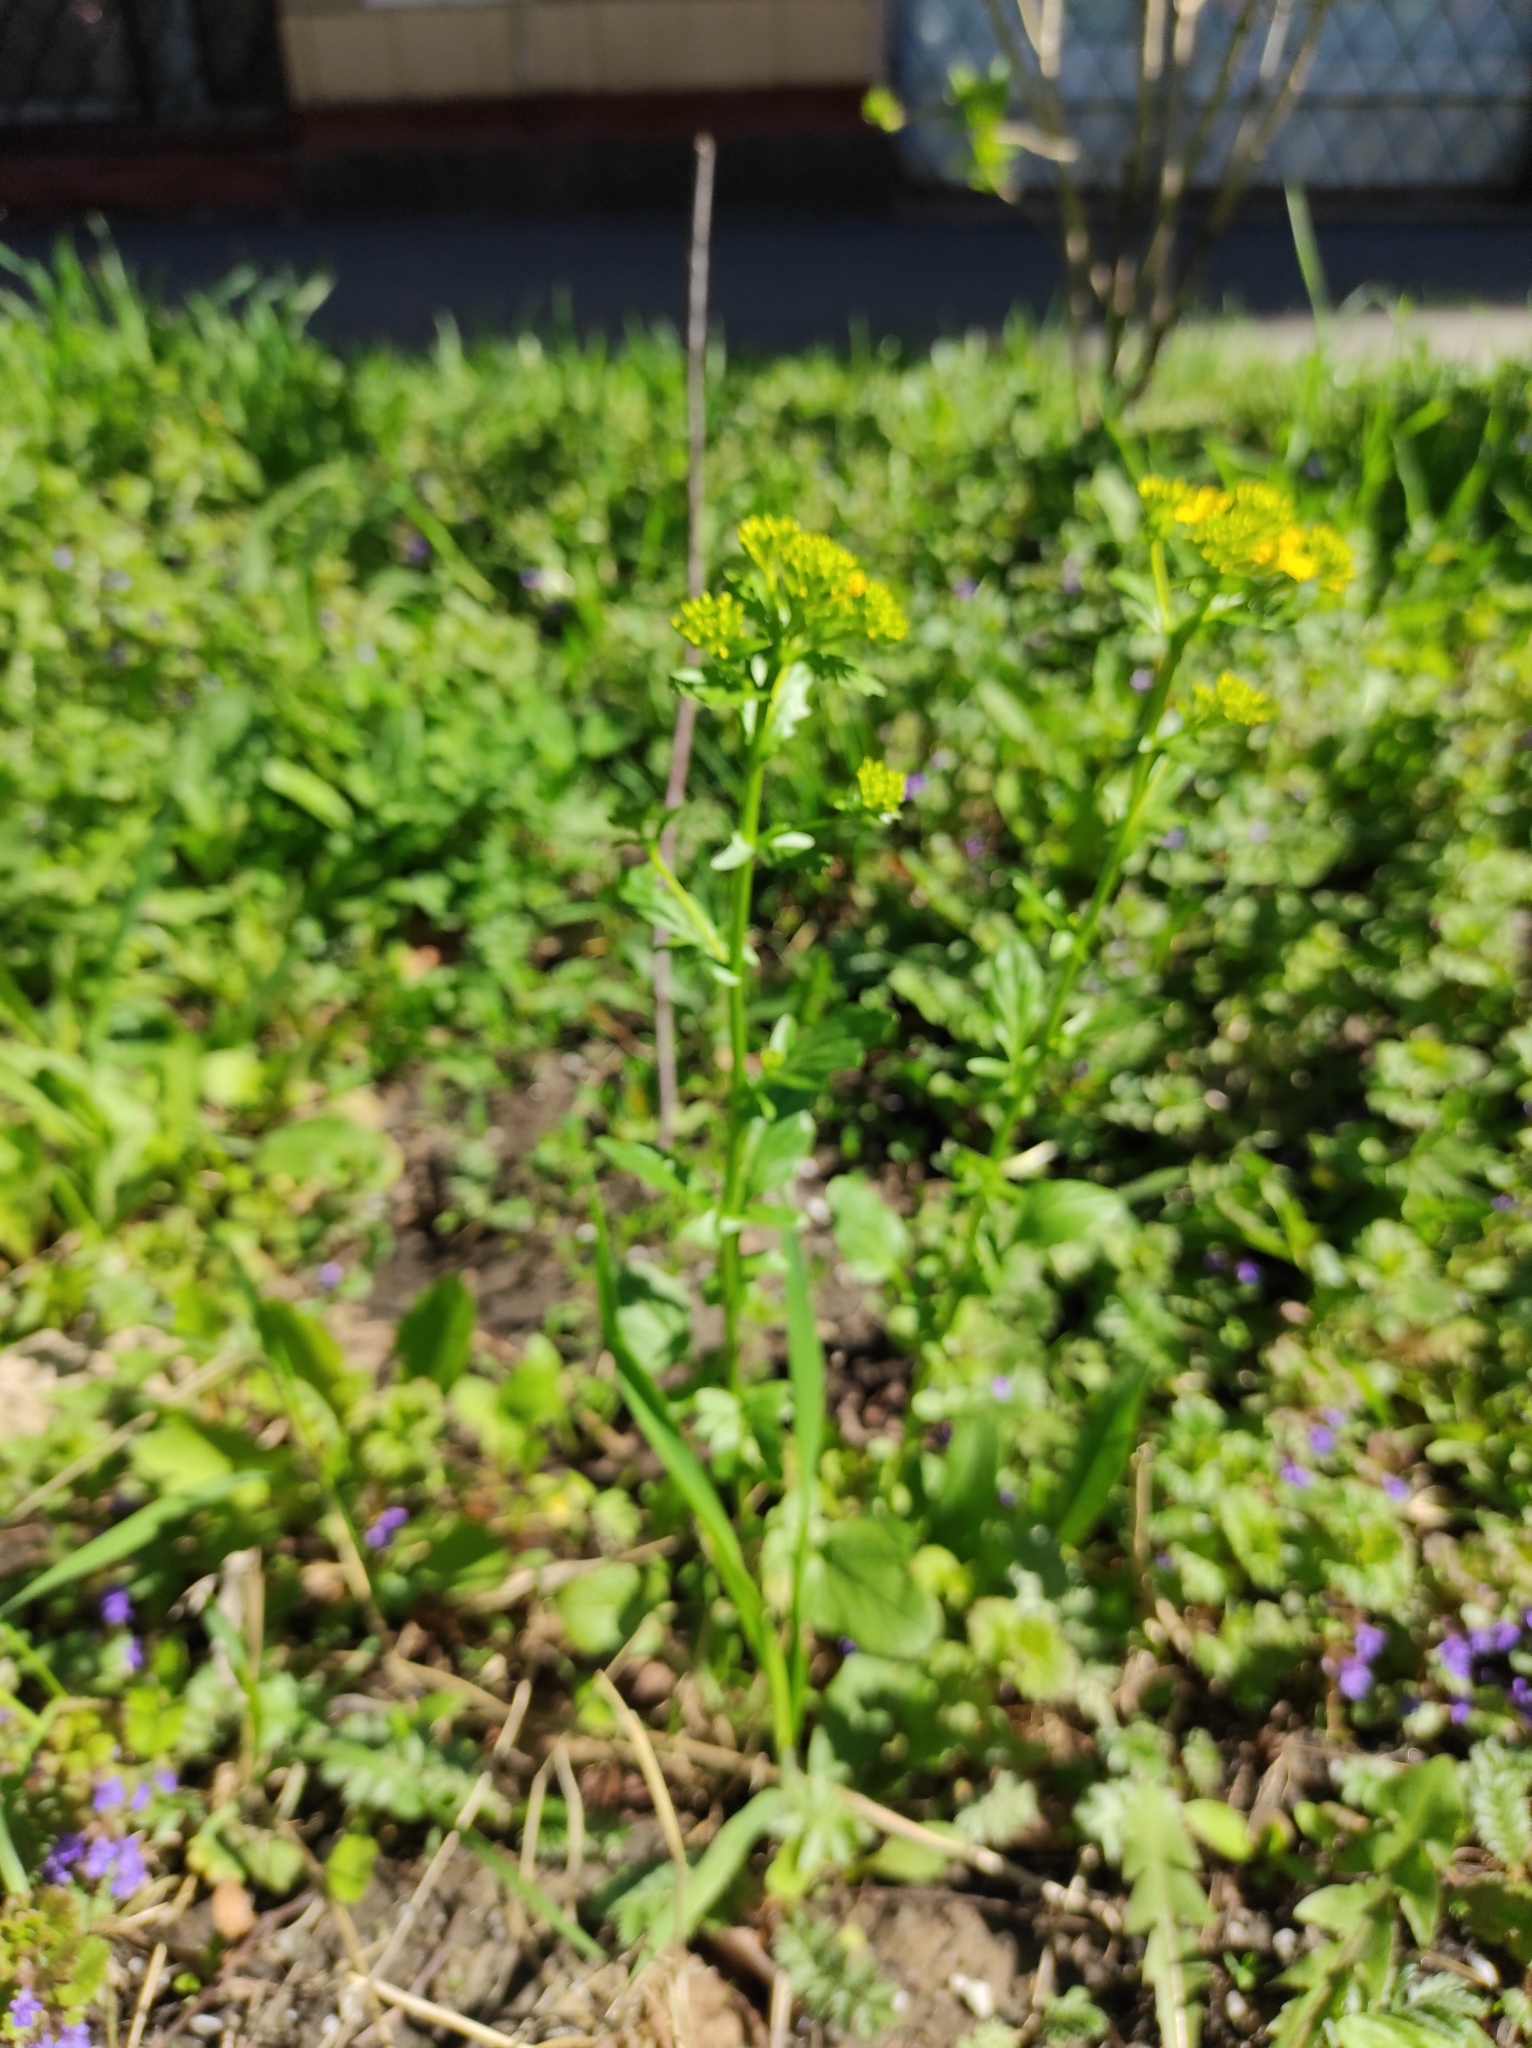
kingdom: Plantae
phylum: Tracheophyta
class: Magnoliopsida
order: Brassicales
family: Brassicaceae
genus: Barbarea
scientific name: Barbarea vulgaris
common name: Cressy-greens
